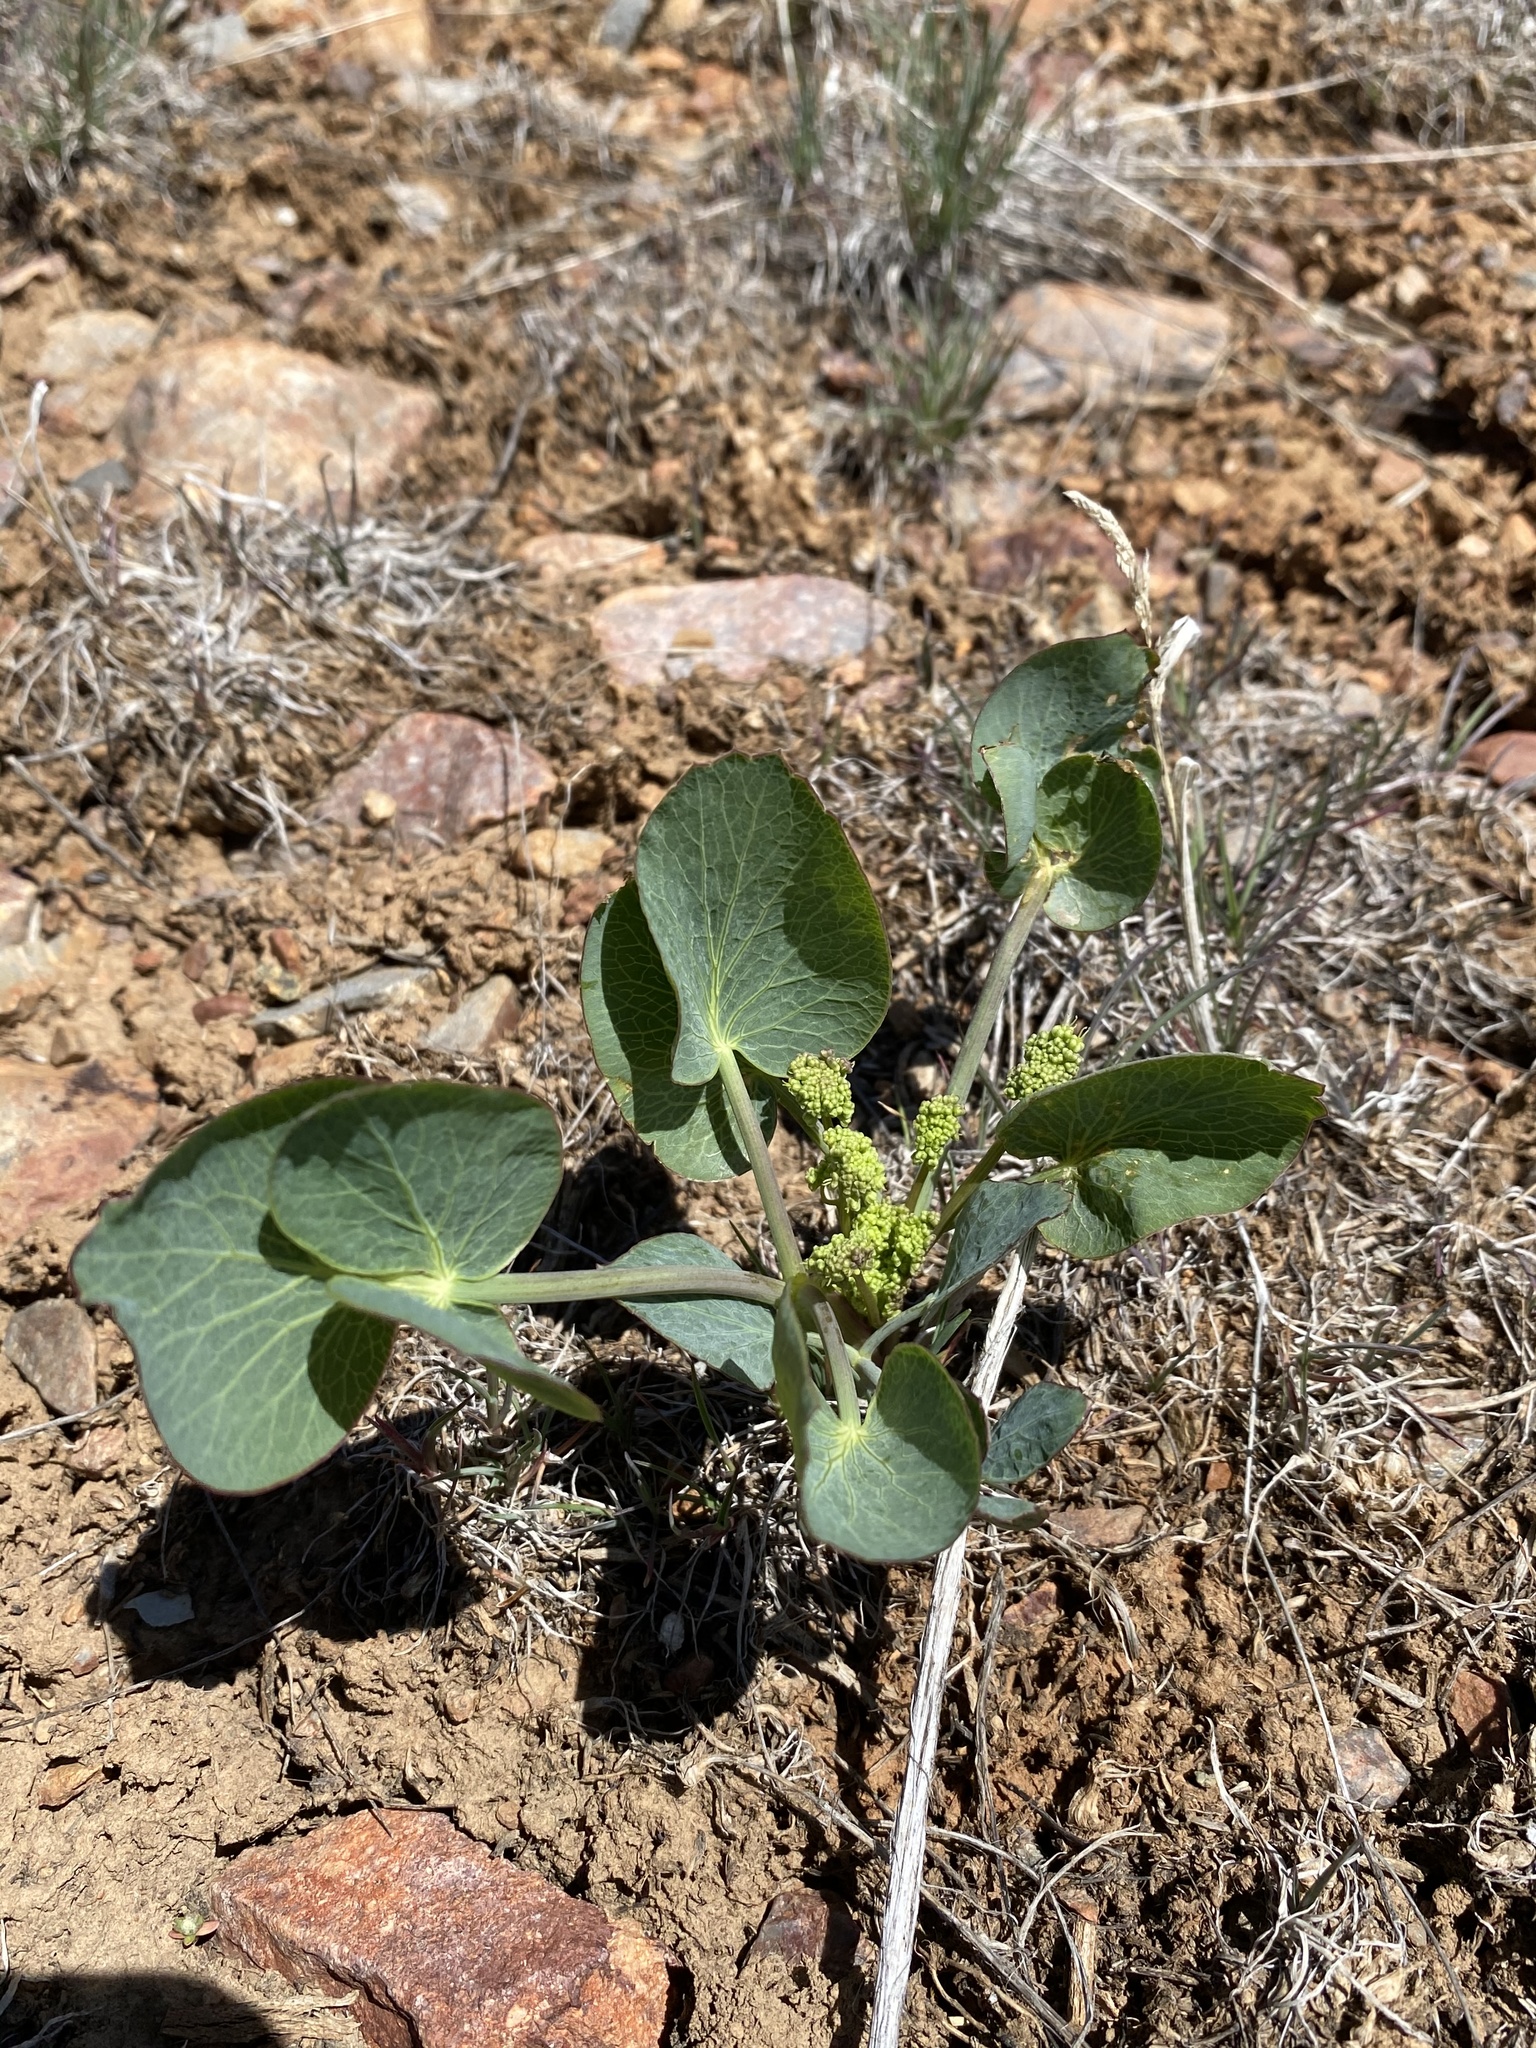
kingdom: Plantae
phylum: Tracheophyta
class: Magnoliopsida
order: Apiales
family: Apiaceae
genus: Lomatium
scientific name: Lomatium nudicaule
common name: Pestle lomatium
